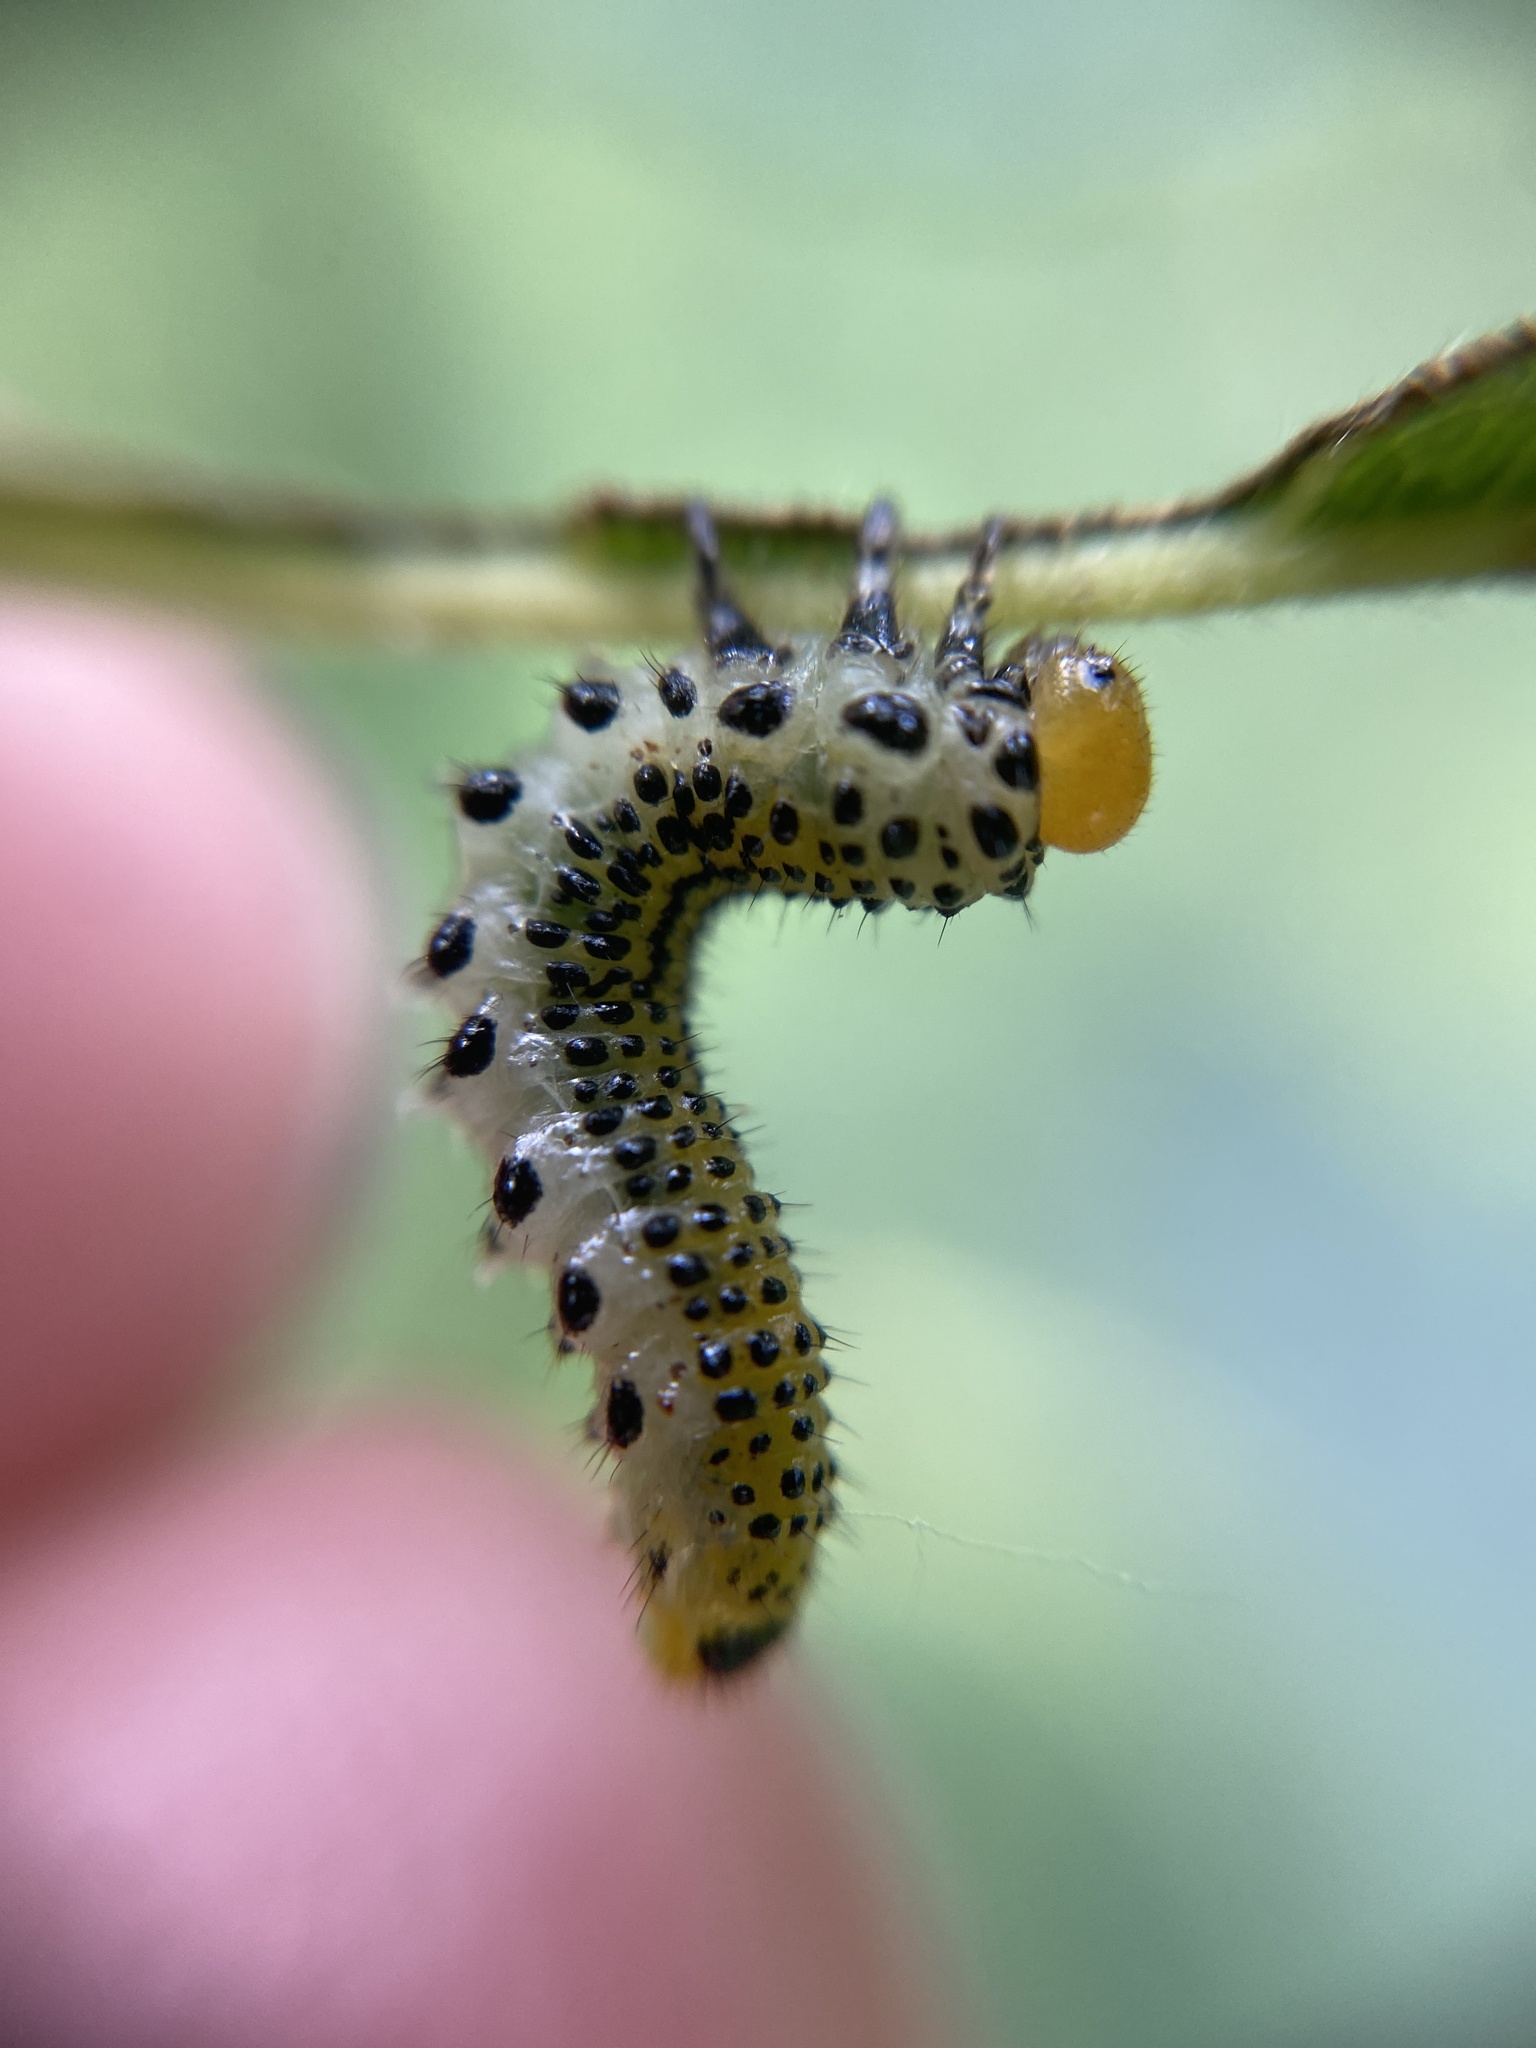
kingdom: Animalia
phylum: Arthropoda
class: Insecta
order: Hymenoptera
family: Argidae
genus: Arge
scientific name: Arge pagana
